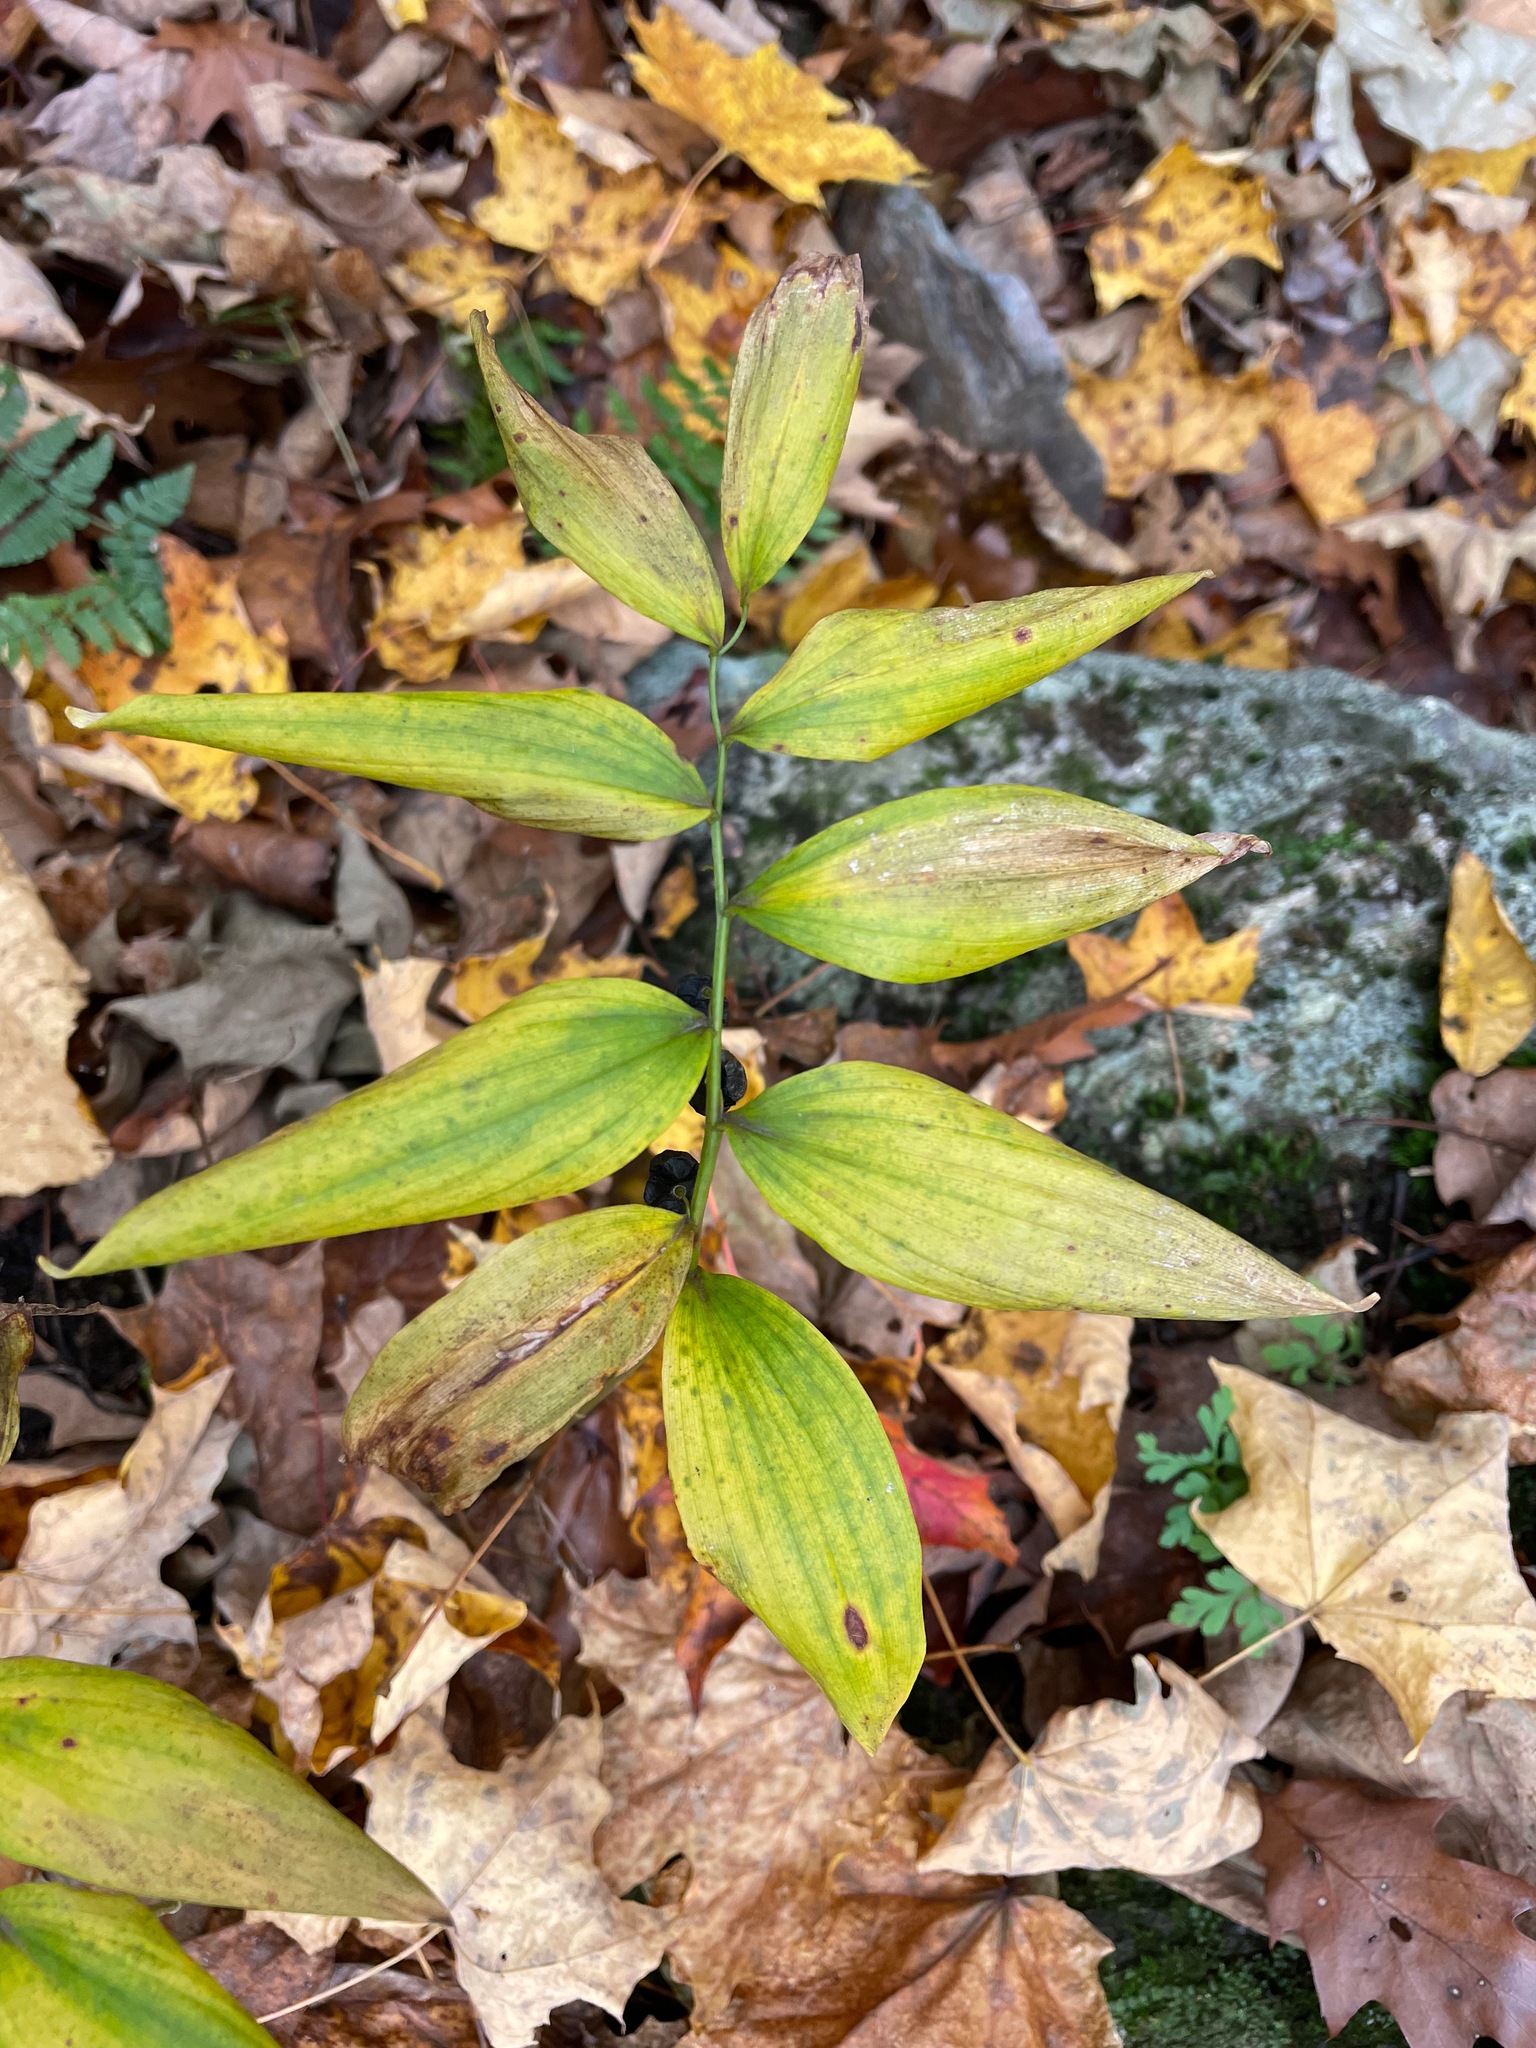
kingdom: Plantae
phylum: Tracheophyta
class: Liliopsida
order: Asparagales
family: Asparagaceae
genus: Polygonatum
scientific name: Polygonatum pubescens
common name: Downy solomon's seal
